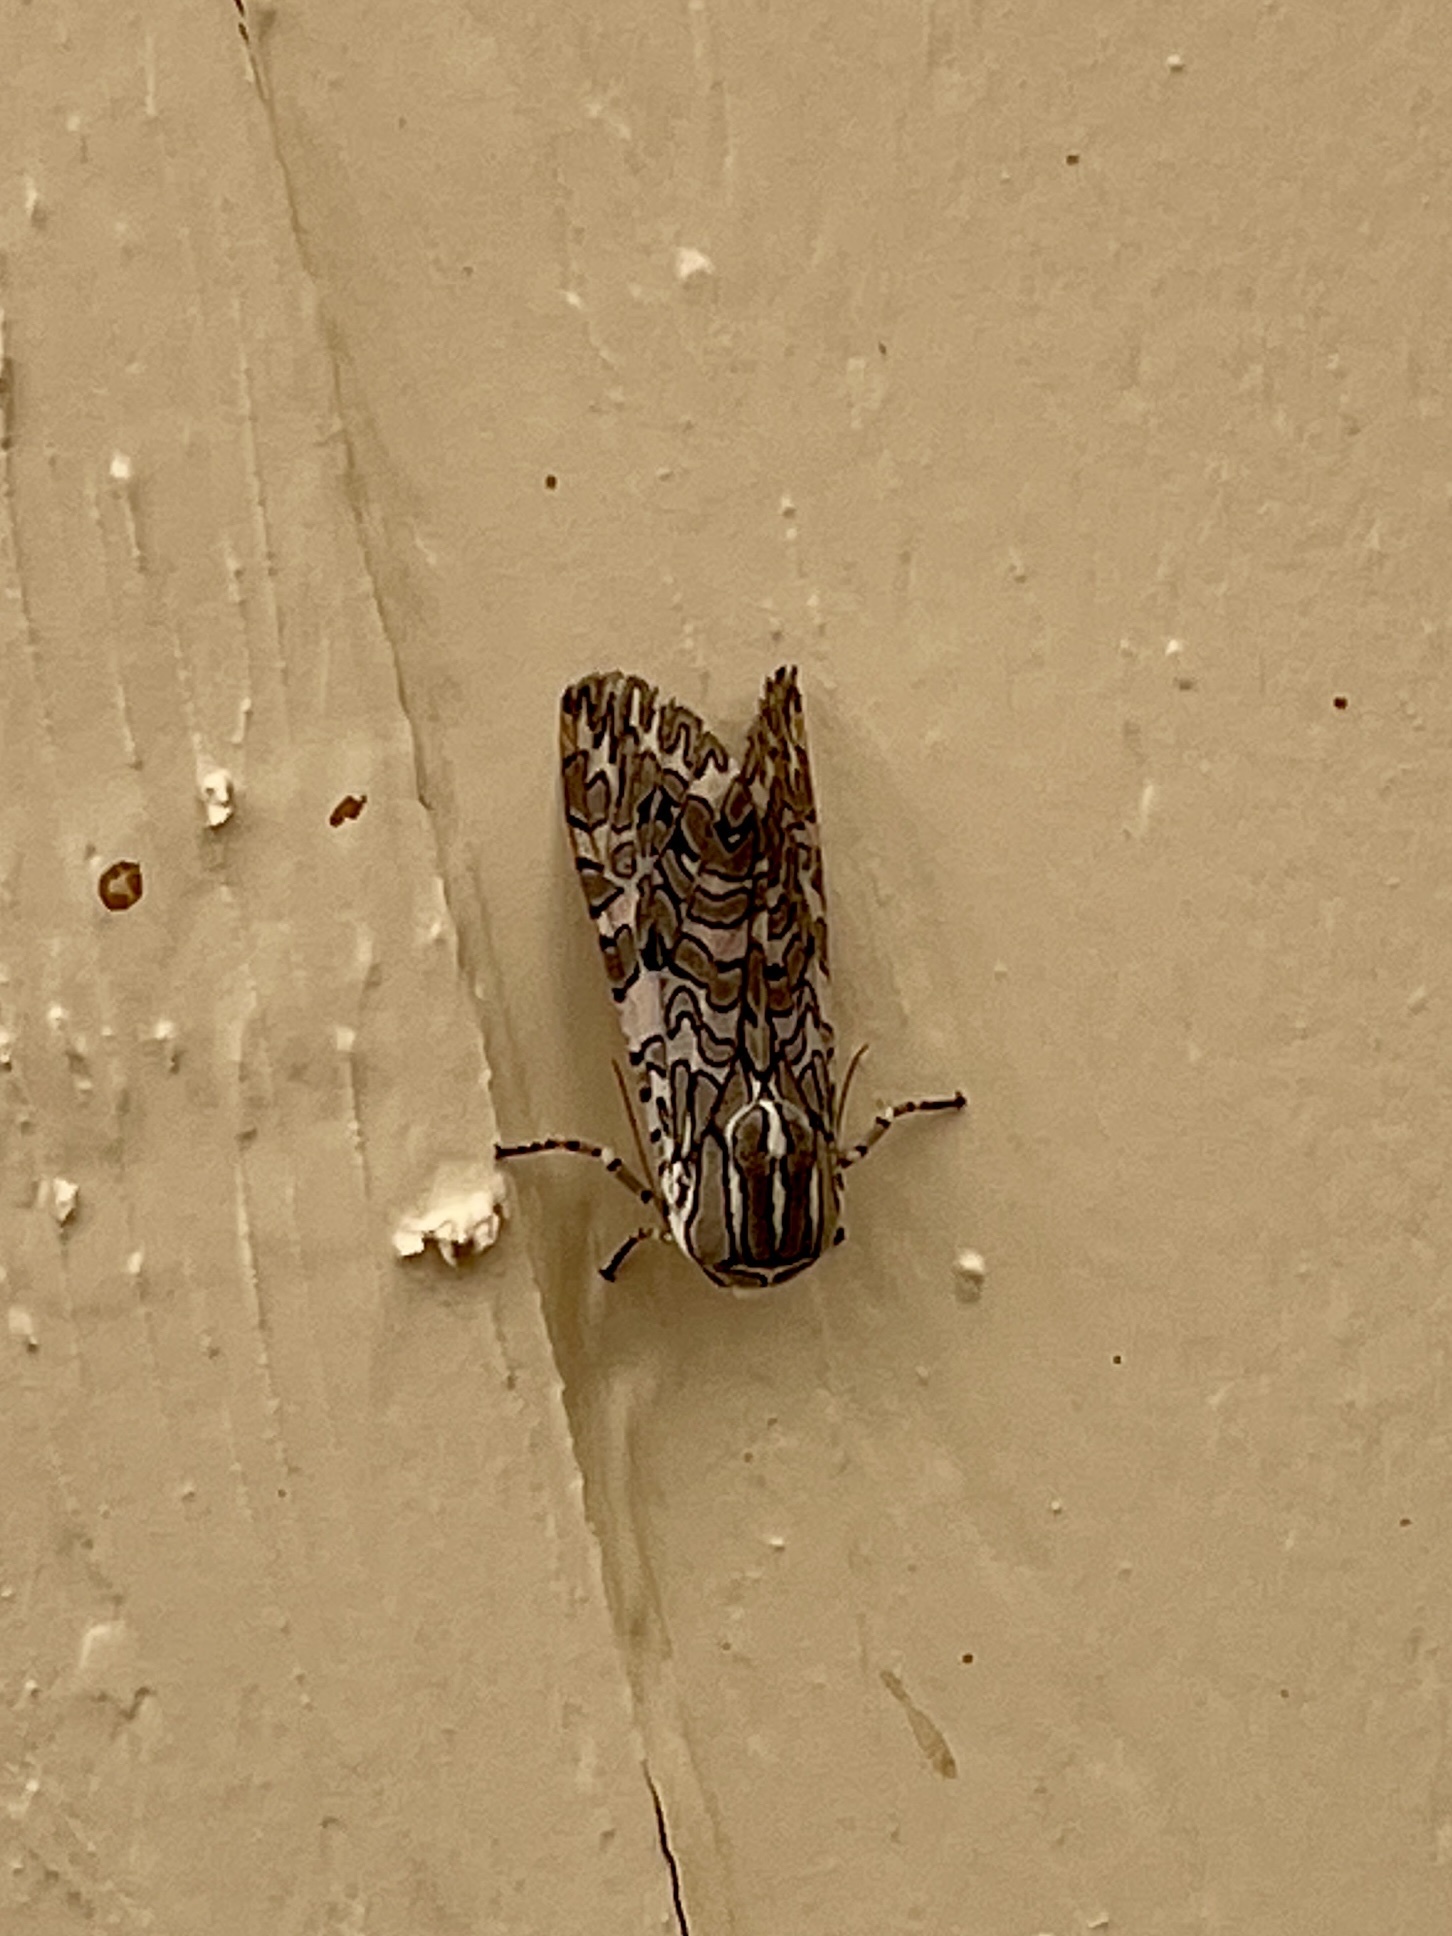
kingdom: Animalia
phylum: Arthropoda
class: Insecta
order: Lepidoptera
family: Erebidae
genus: Arachnis
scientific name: Arachnis picta
